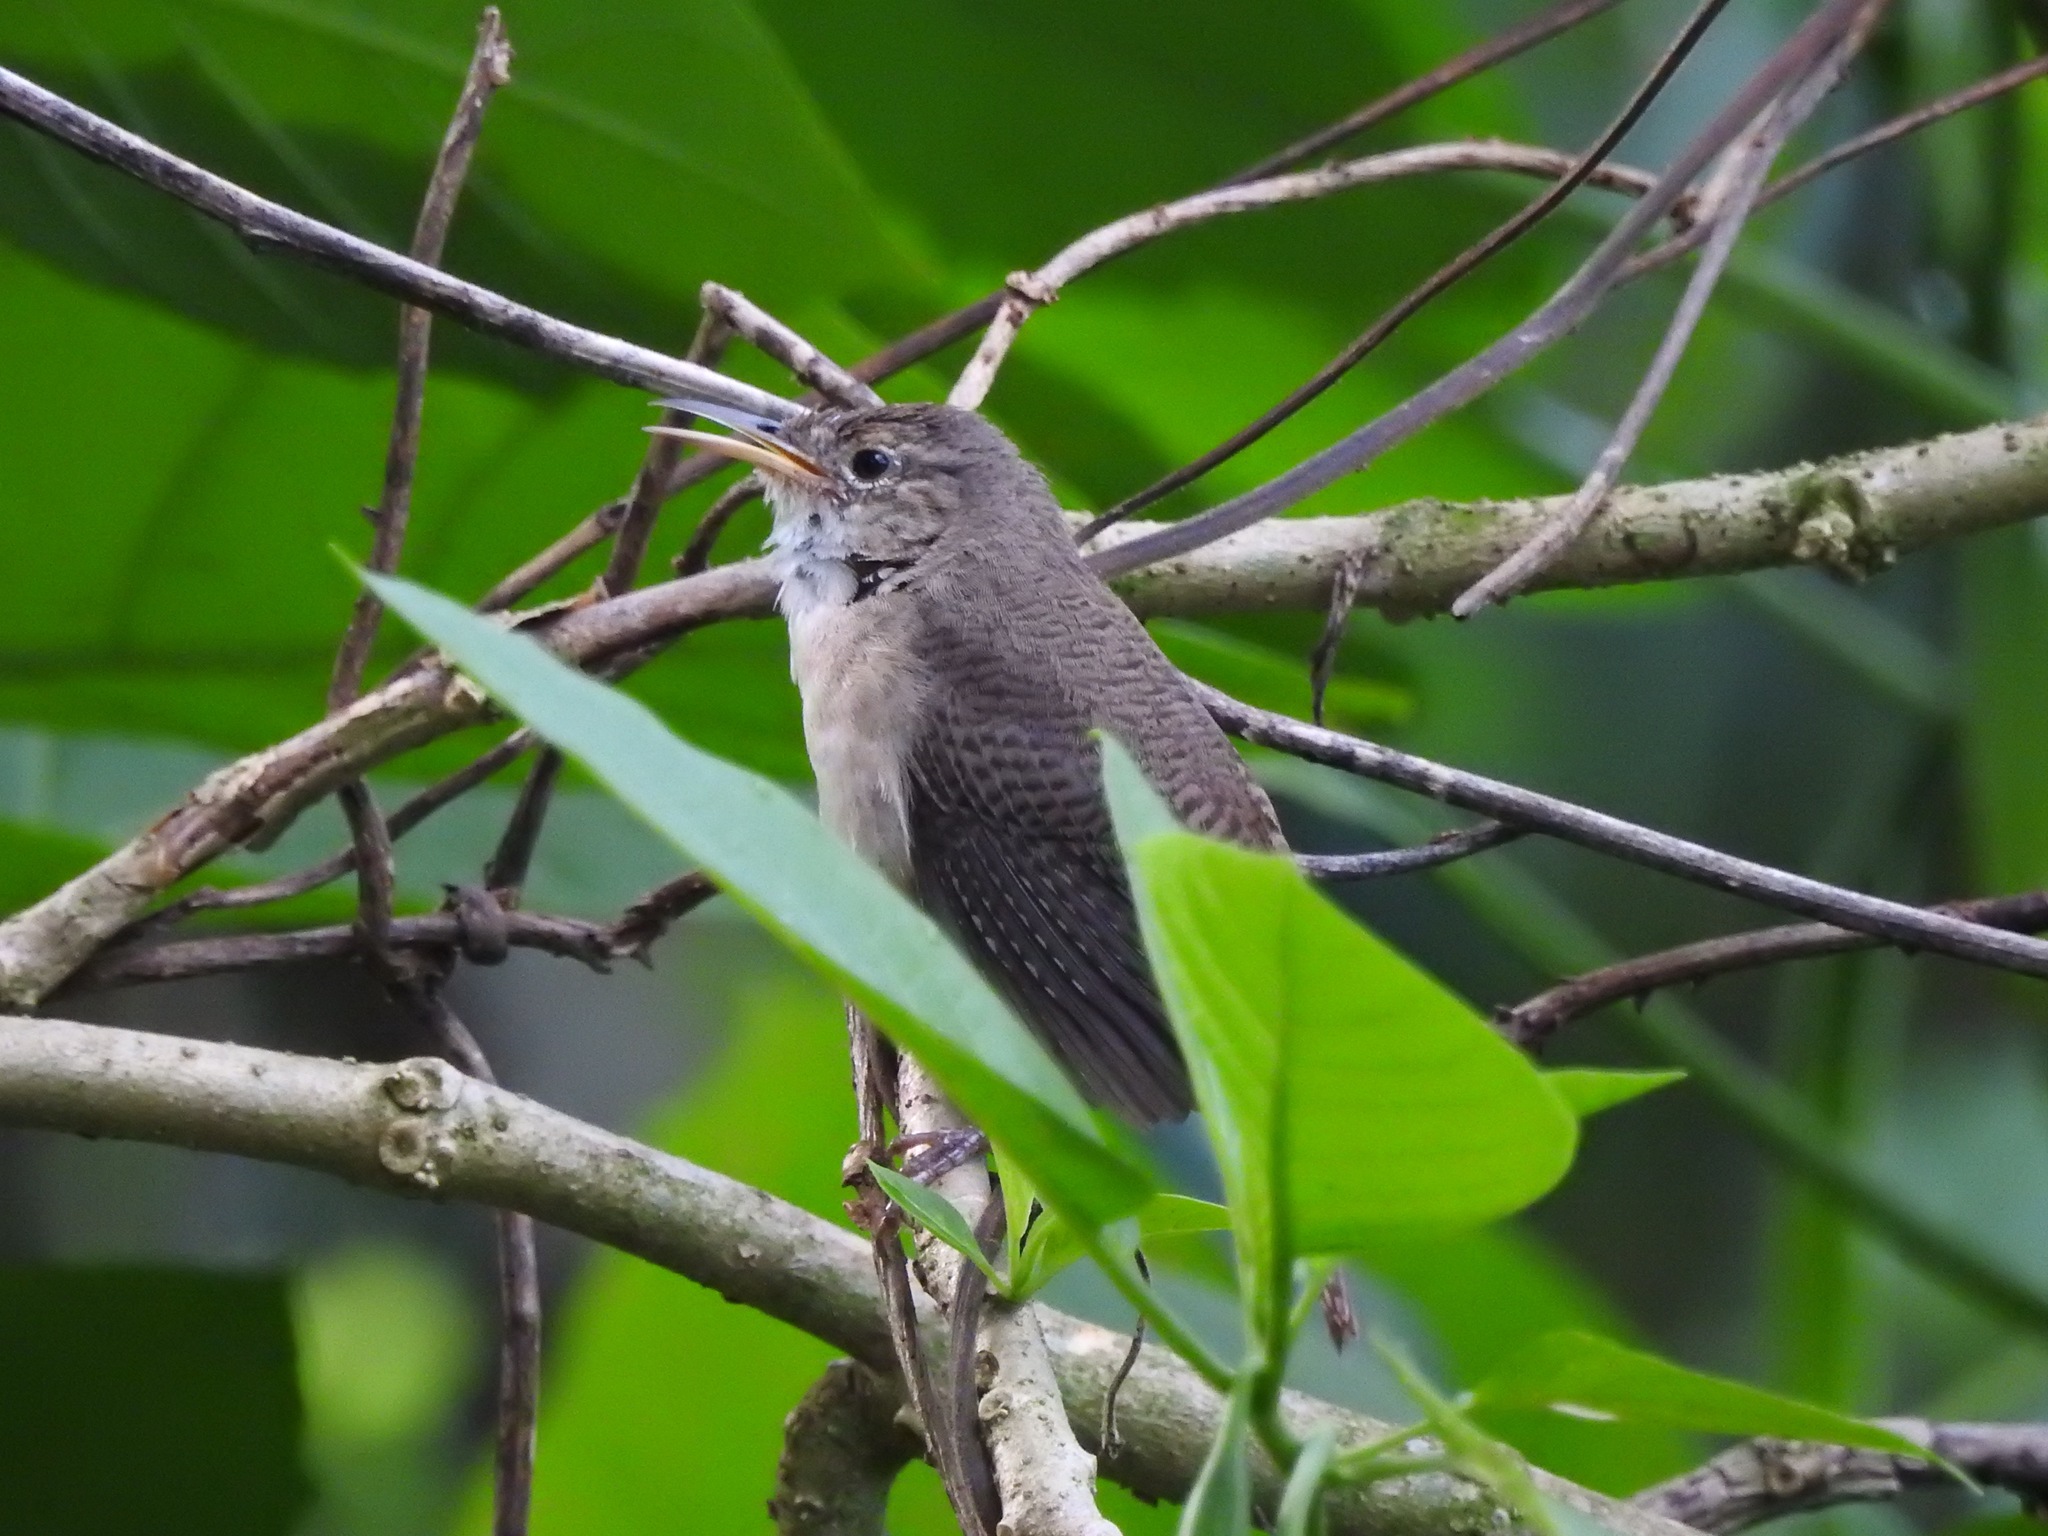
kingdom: Animalia
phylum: Chordata
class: Aves
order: Passeriformes
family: Troglodytidae
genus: Troglodytes
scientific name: Troglodytes aedon
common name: House wren
